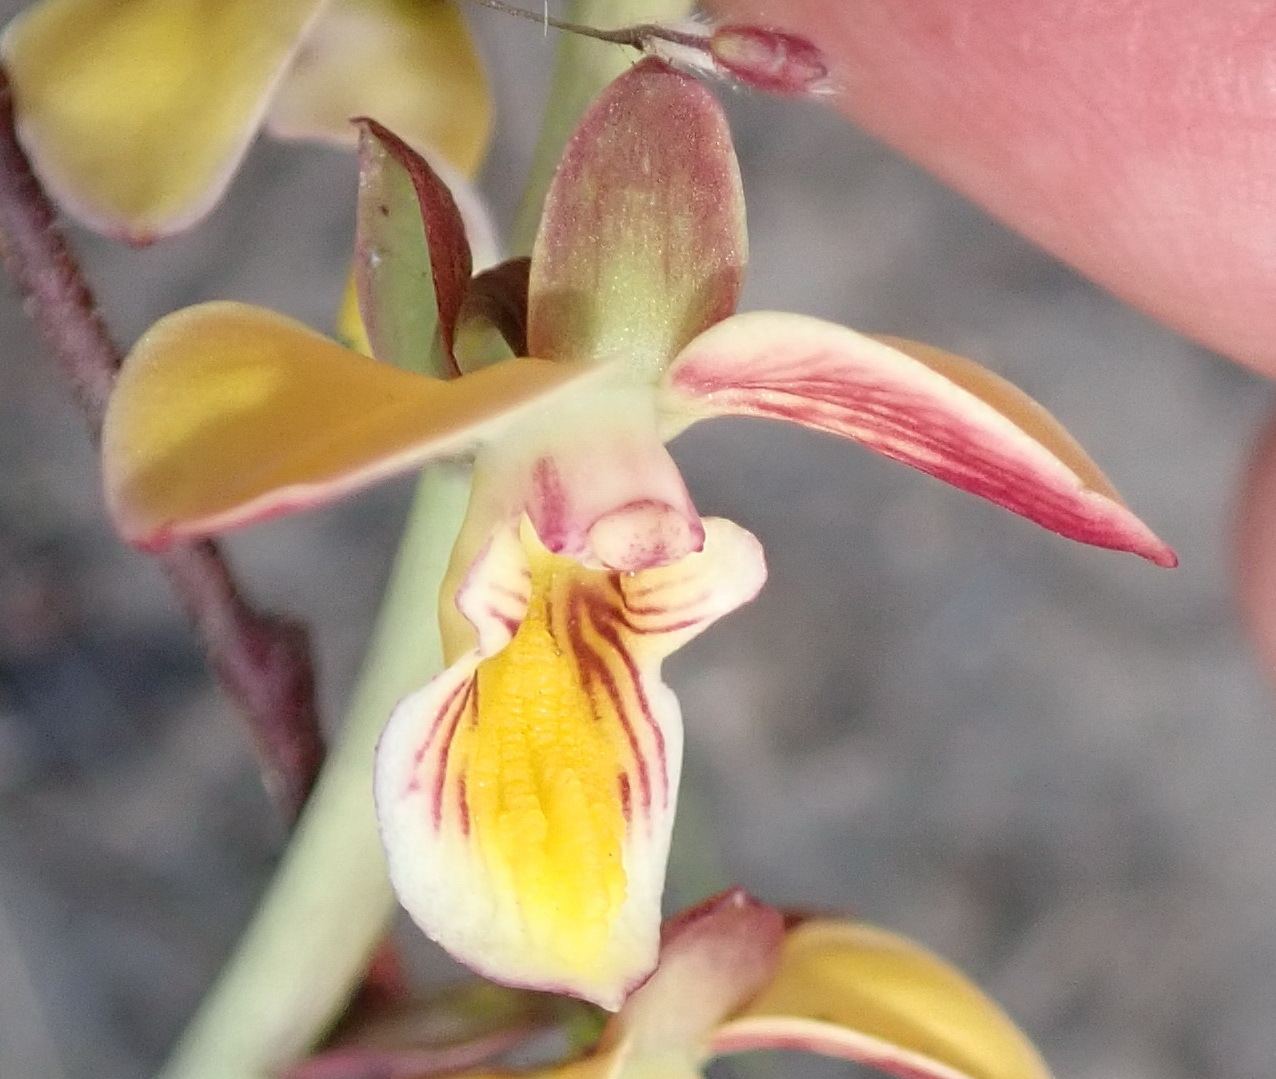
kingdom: Plantae
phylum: Tracheophyta
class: Liliopsida
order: Asparagales
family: Orchidaceae
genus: Eulophia
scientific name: Eulophia tuberculata
